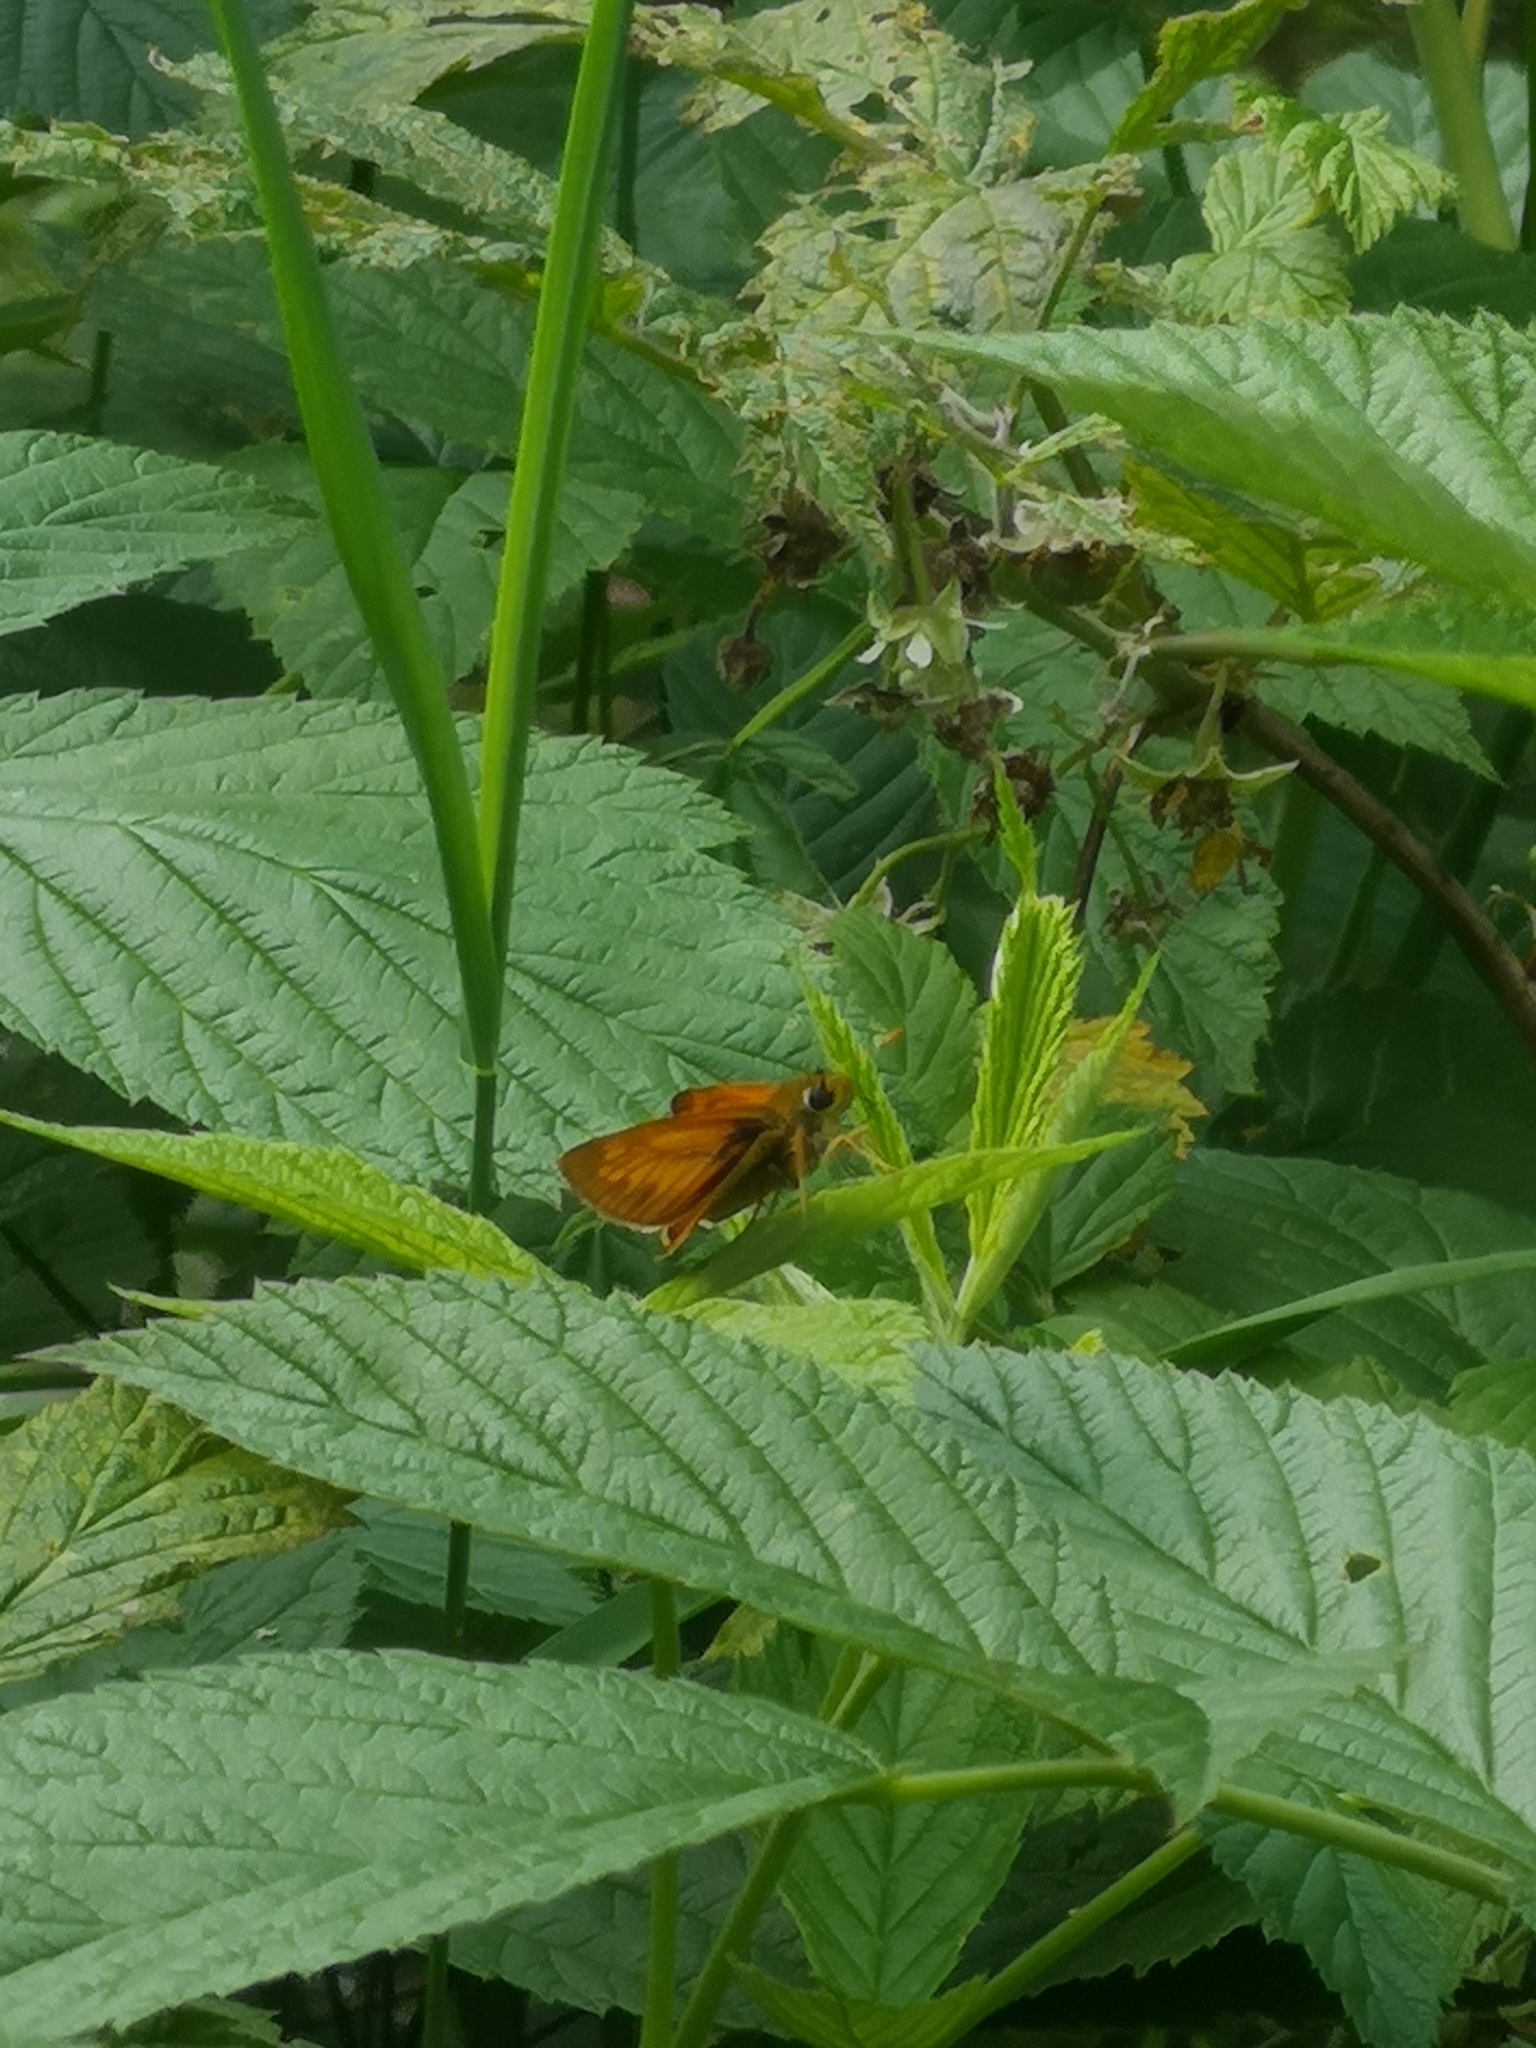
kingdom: Animalia
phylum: Arthropoda
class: Insecta
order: Lepidoptera
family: Hesperiidae
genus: Ochlodes
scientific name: Ochlodes venata
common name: Large skipper
